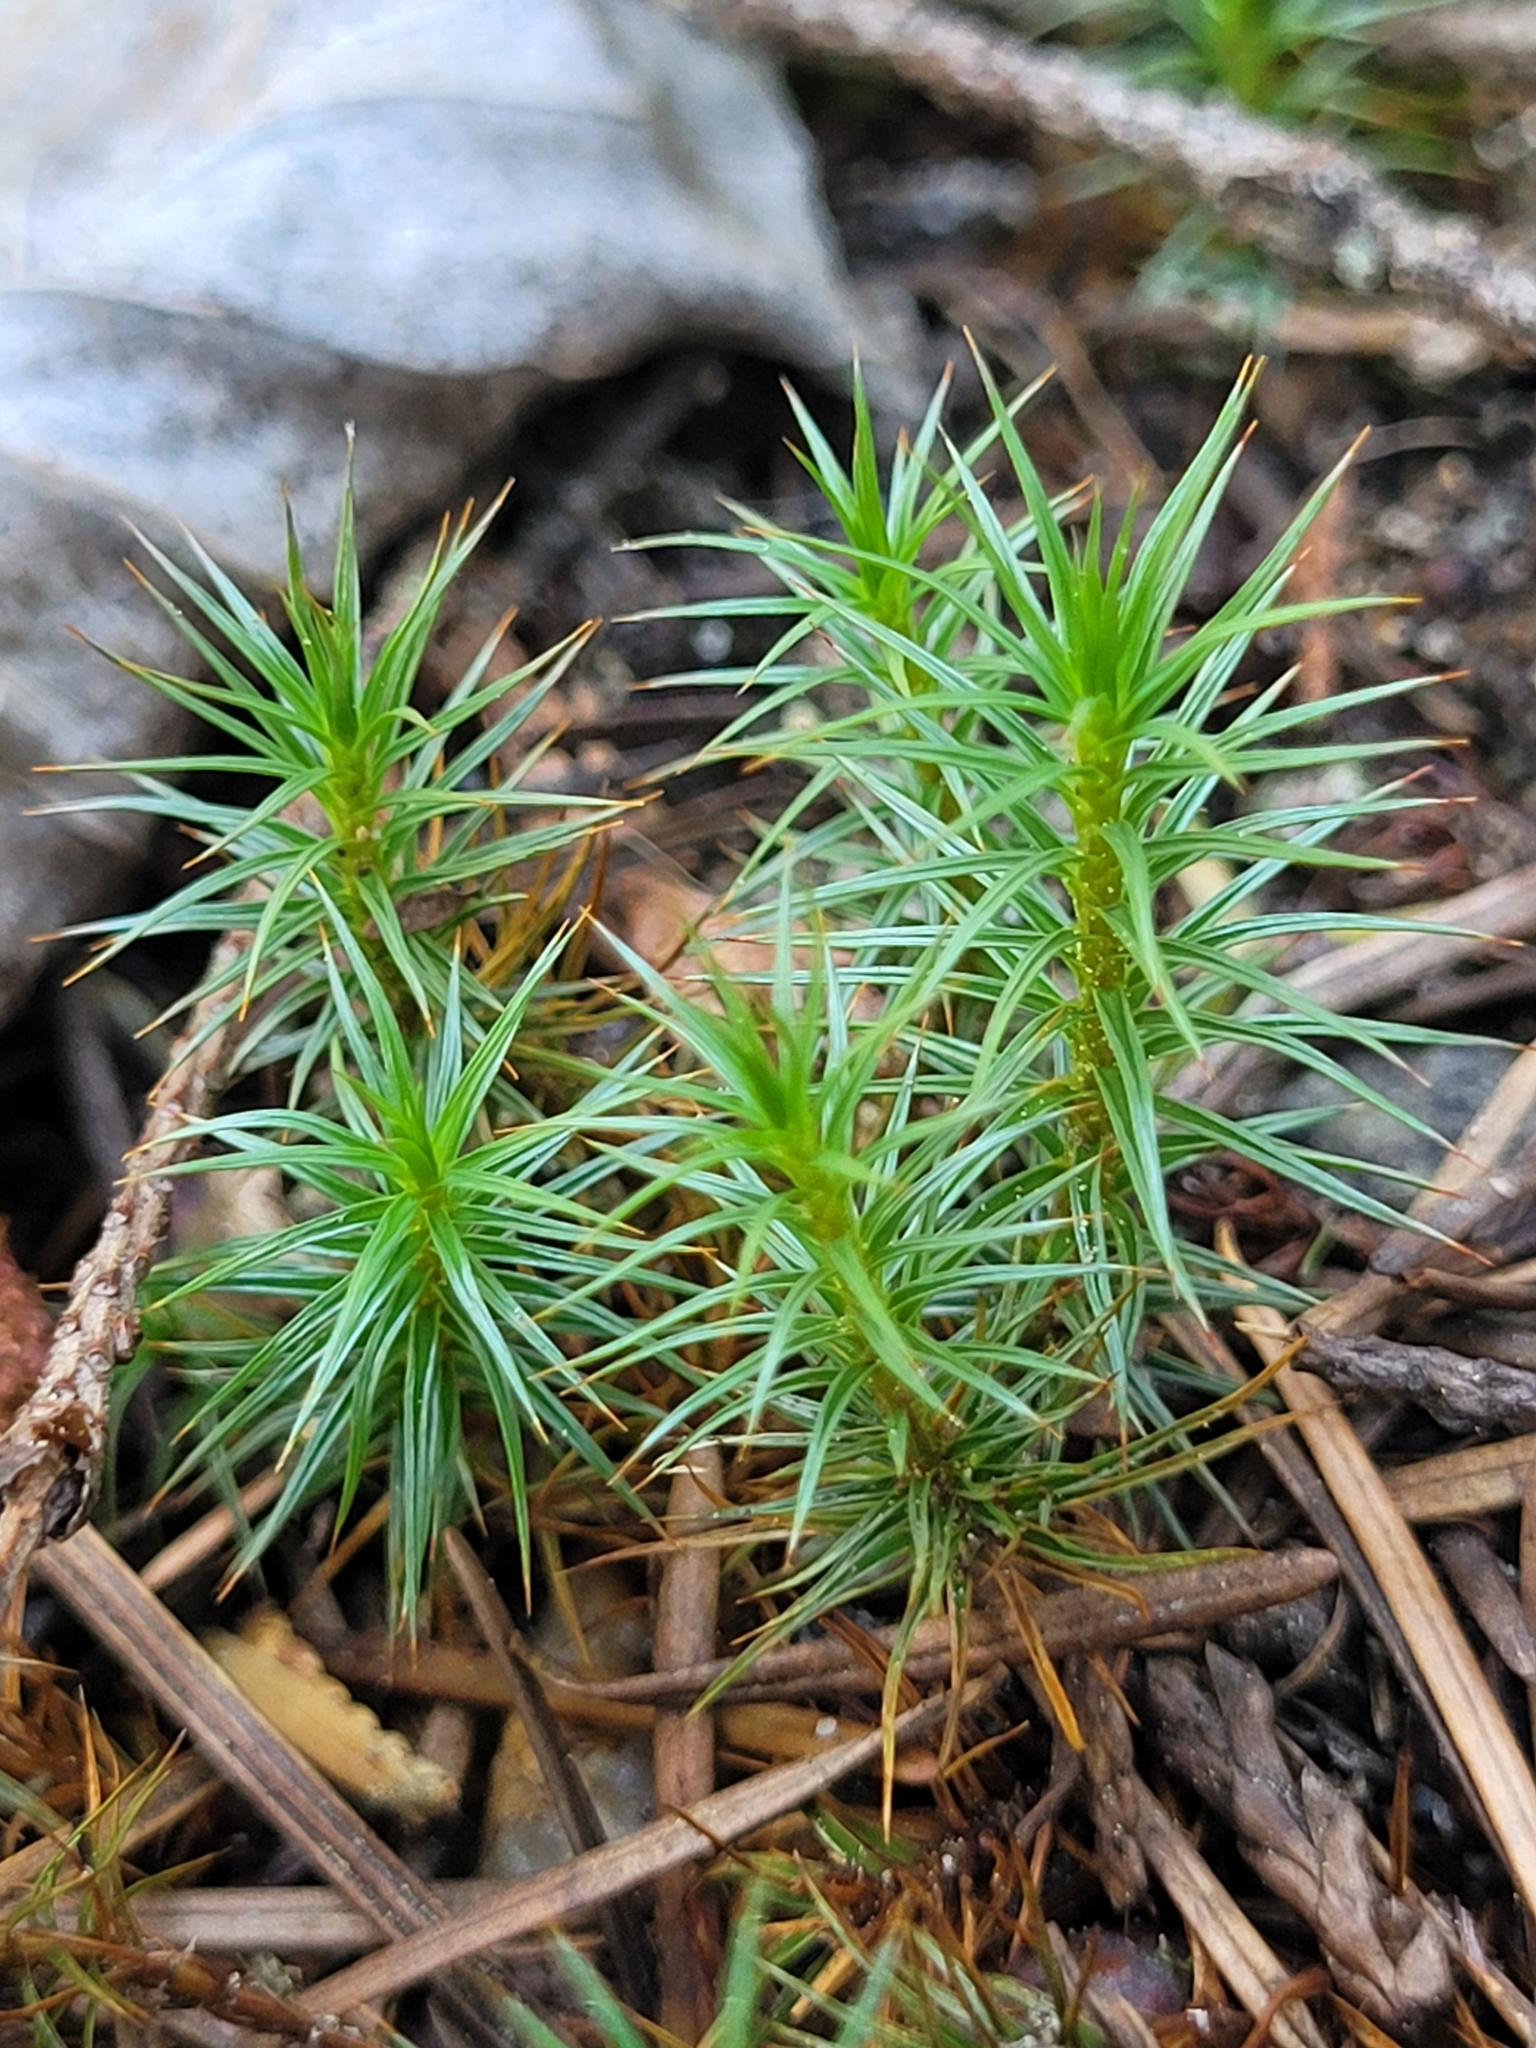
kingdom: Plantae
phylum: Bryophyta
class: Polytrichopsida
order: Polytrichales
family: Polytrichaceae
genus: Polytrichum
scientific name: Polytrichum juniperinum
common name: Juniper haircap moss
